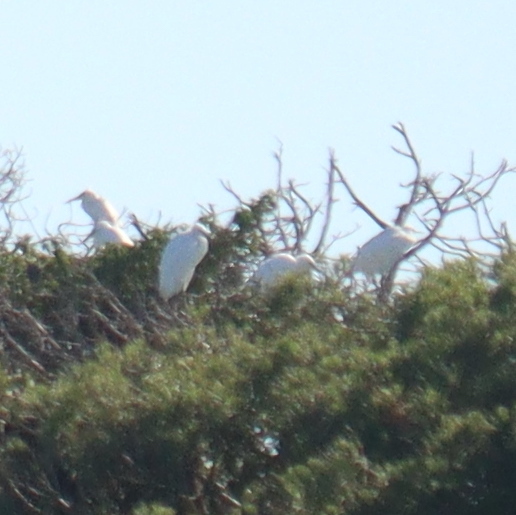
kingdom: Animalia
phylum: Chordata
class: Aves
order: Pelecaniformes
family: Ardeidae
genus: Egretta
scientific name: Egretta garzetta
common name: Little egret
